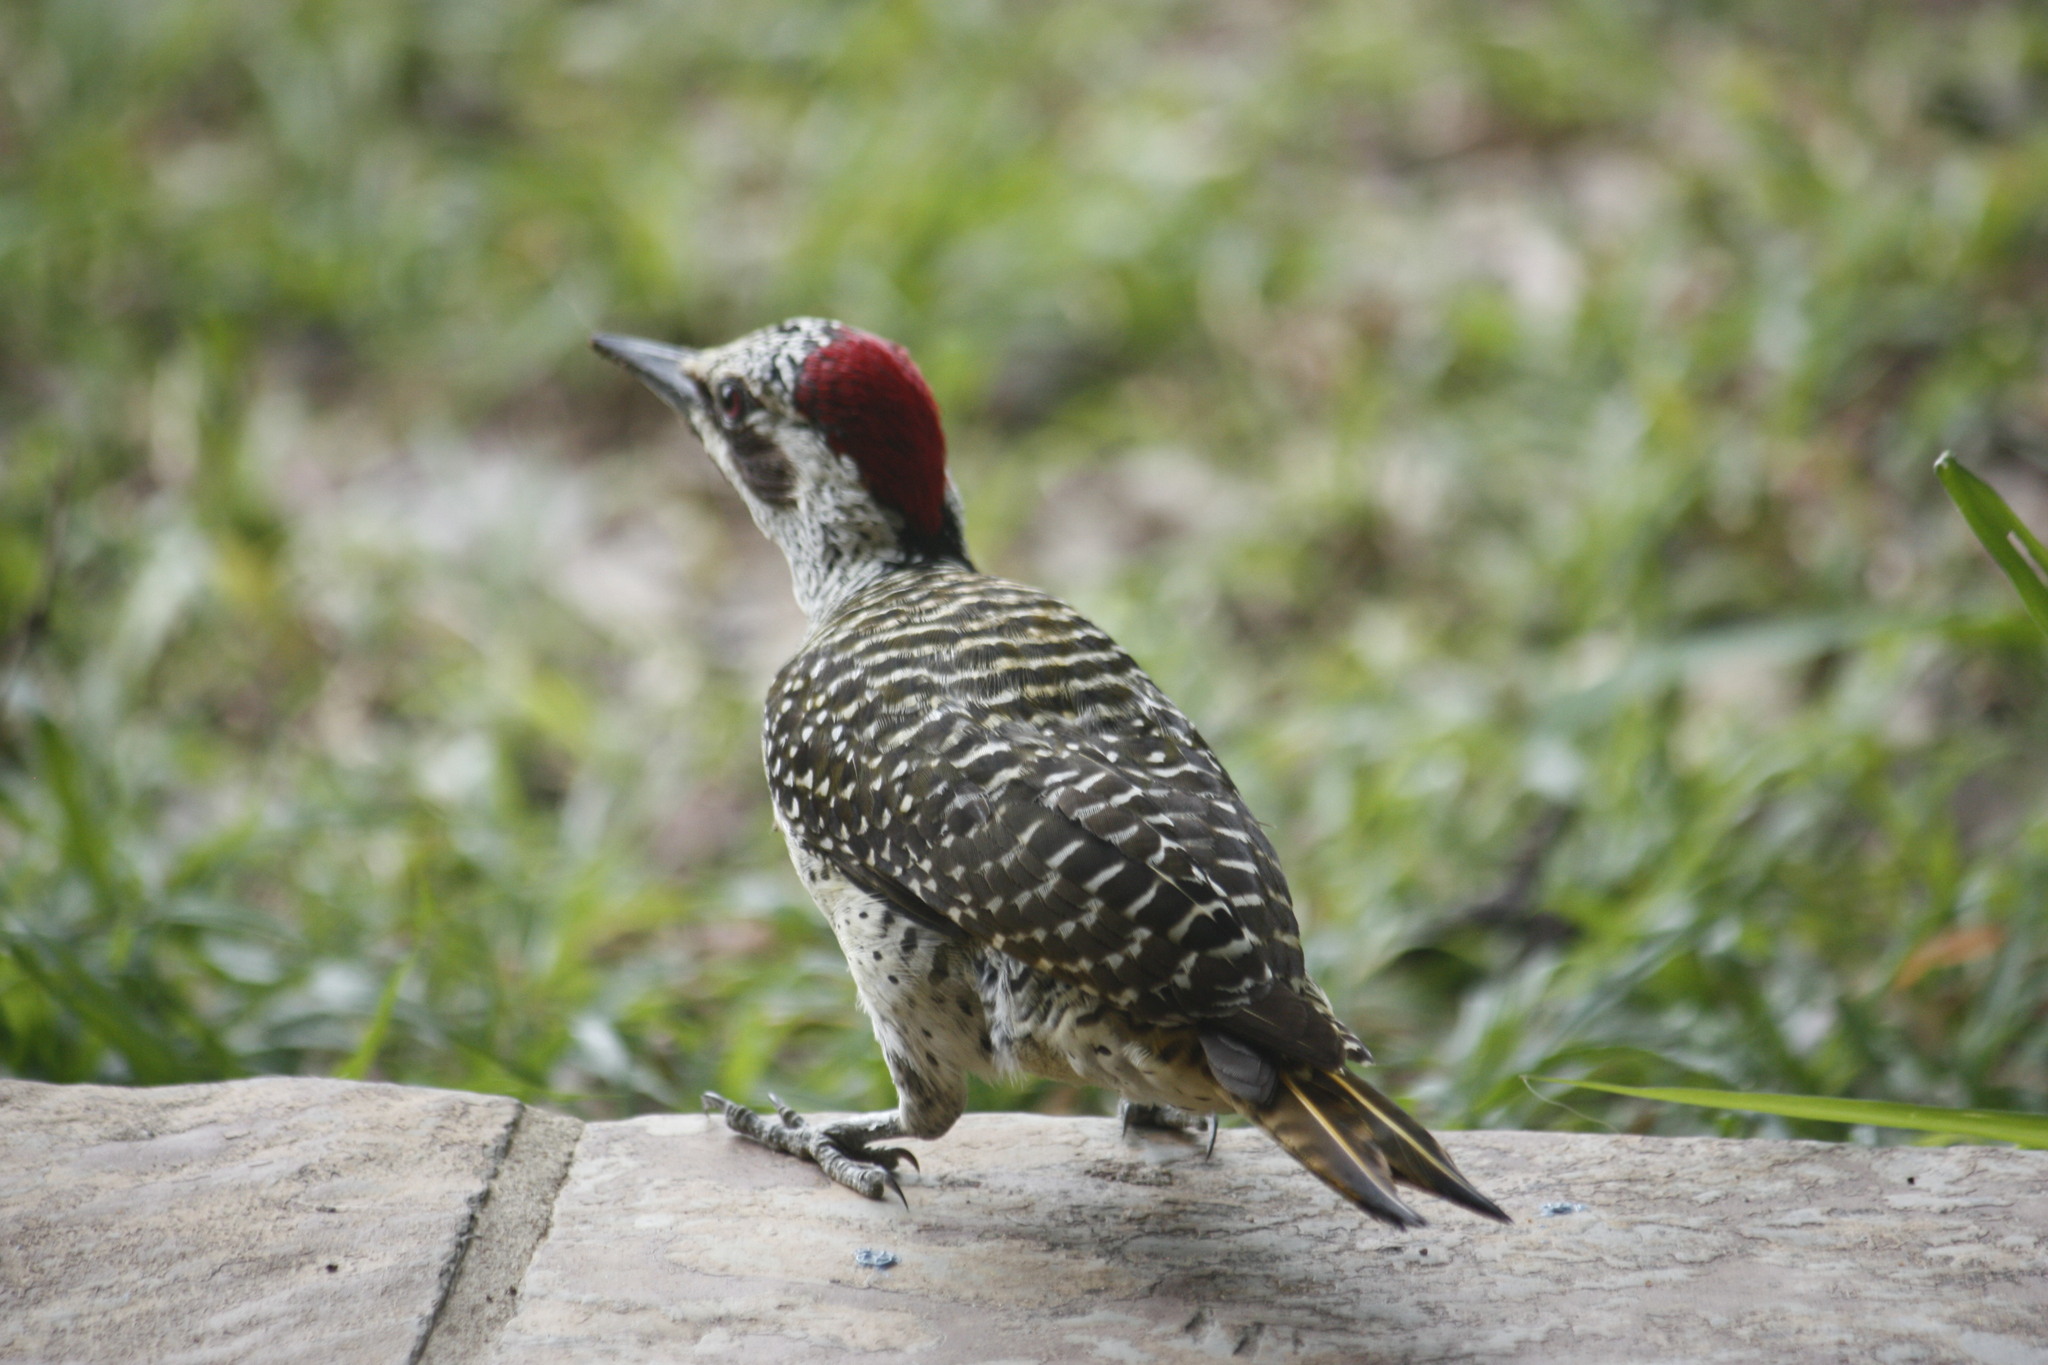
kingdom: Animalia
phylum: Chordata
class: Aves
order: Piciformes
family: Picidae
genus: Campethera
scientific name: Campethera bennettii
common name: Bennett's woodpecker
